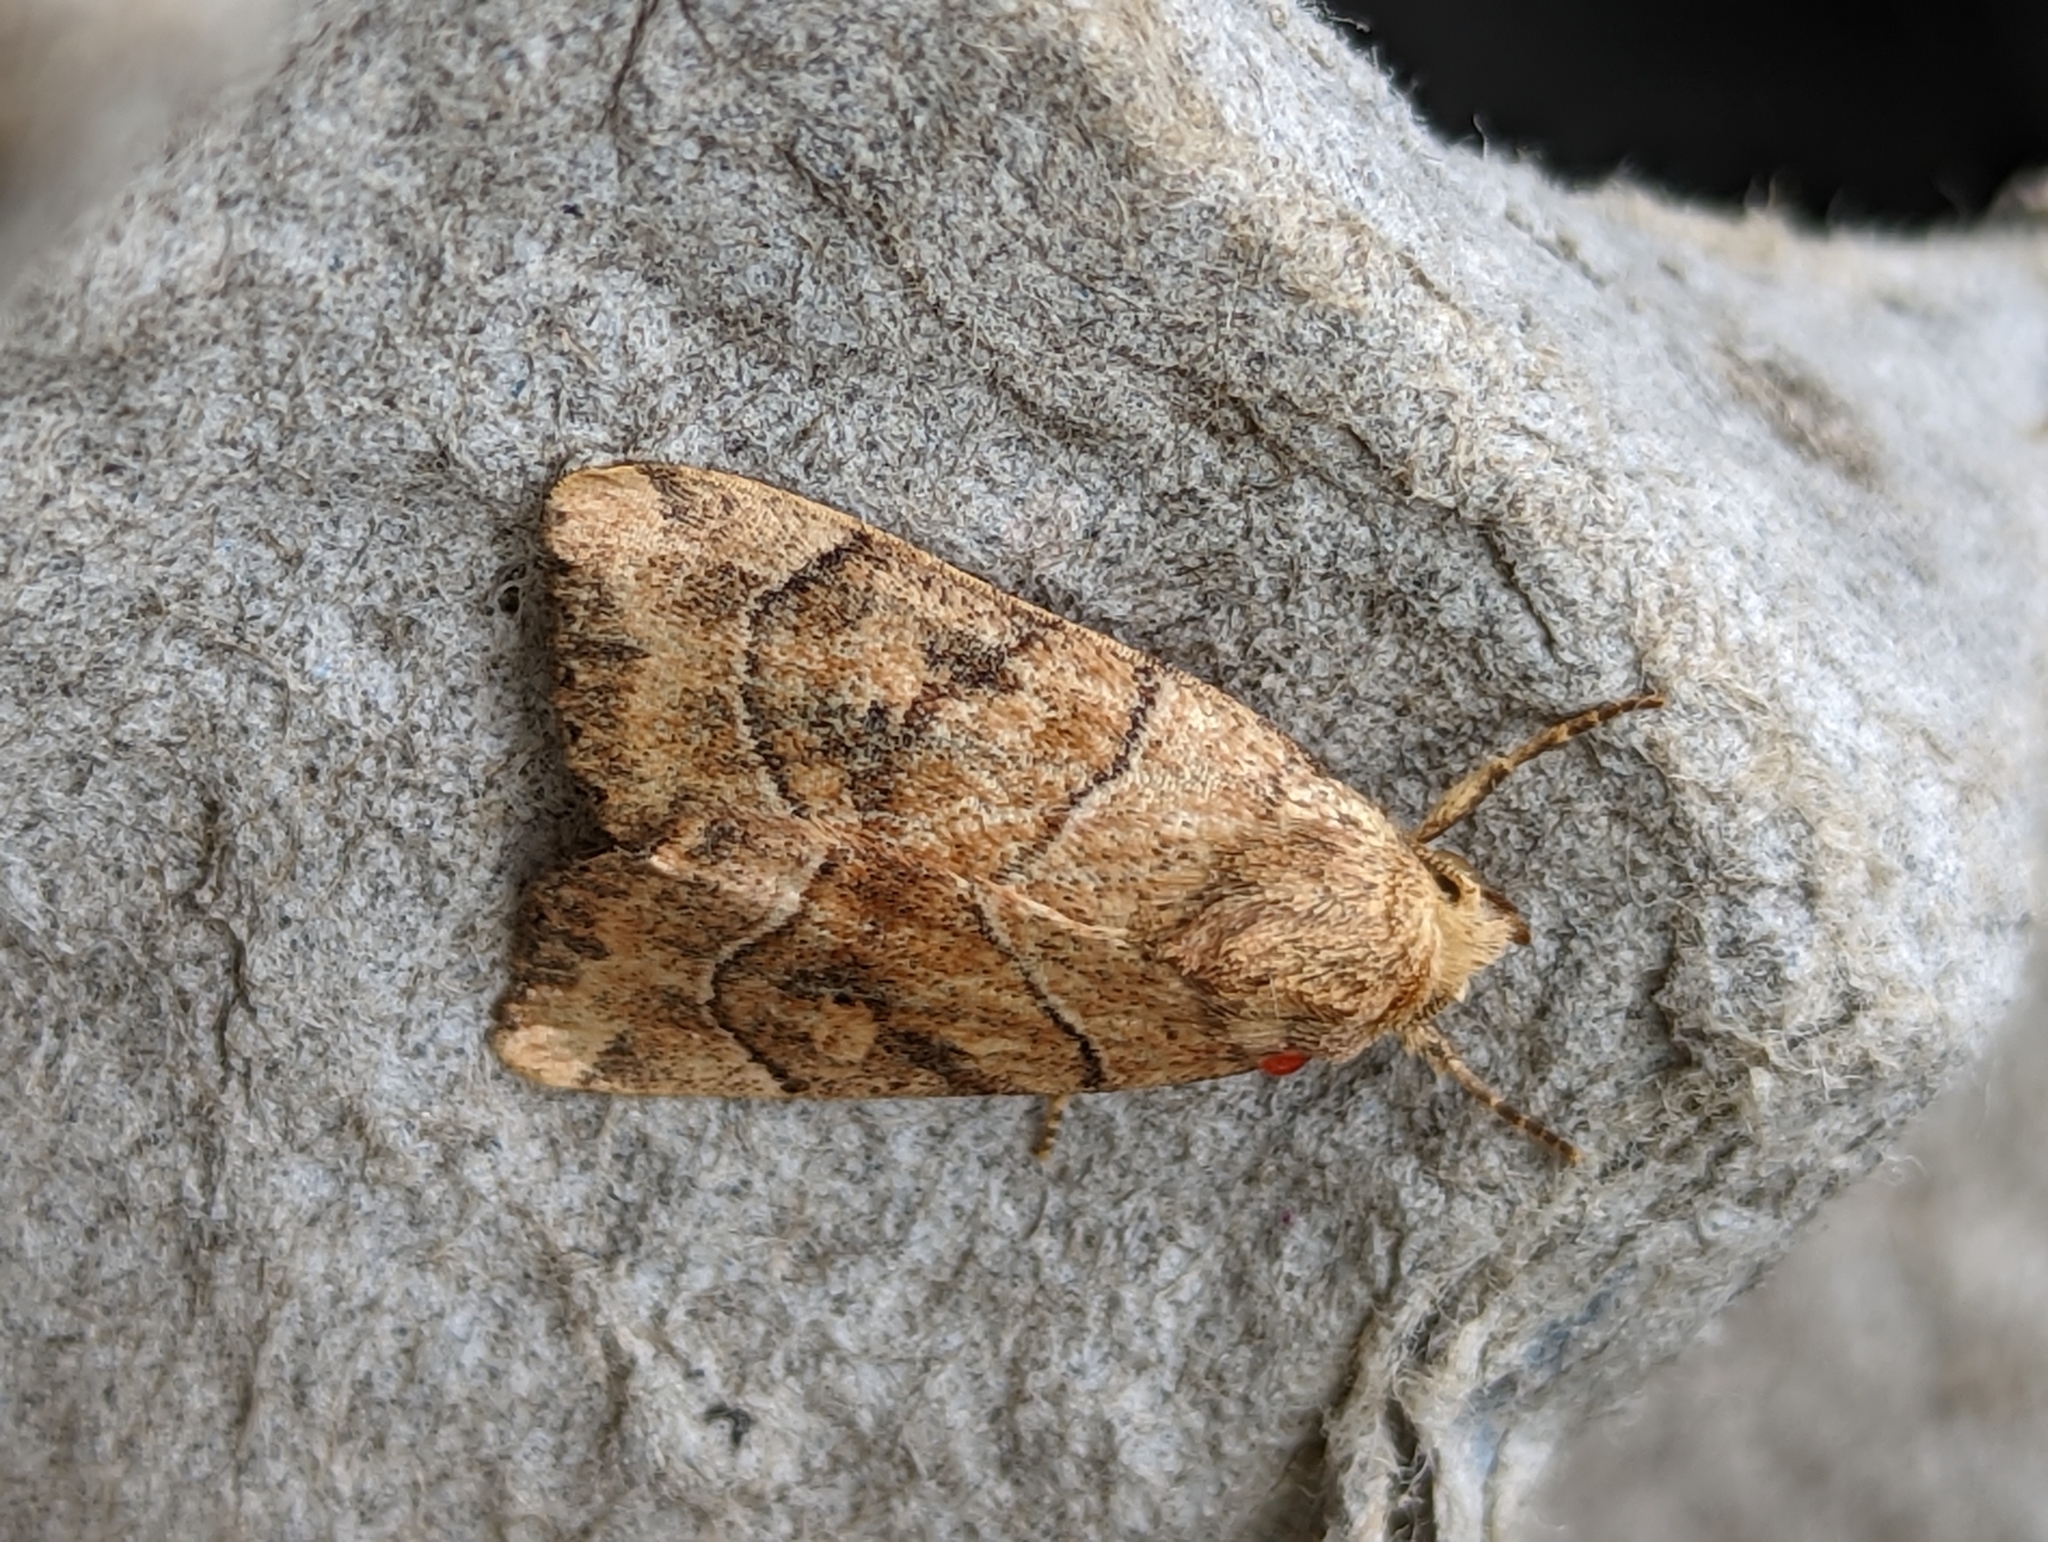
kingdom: Animalia
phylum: Arthropoda
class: Insecta
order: Lepidoptera
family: Noctuidae
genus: Cosmia
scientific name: Cosmia trapezina
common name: Dun-bar
